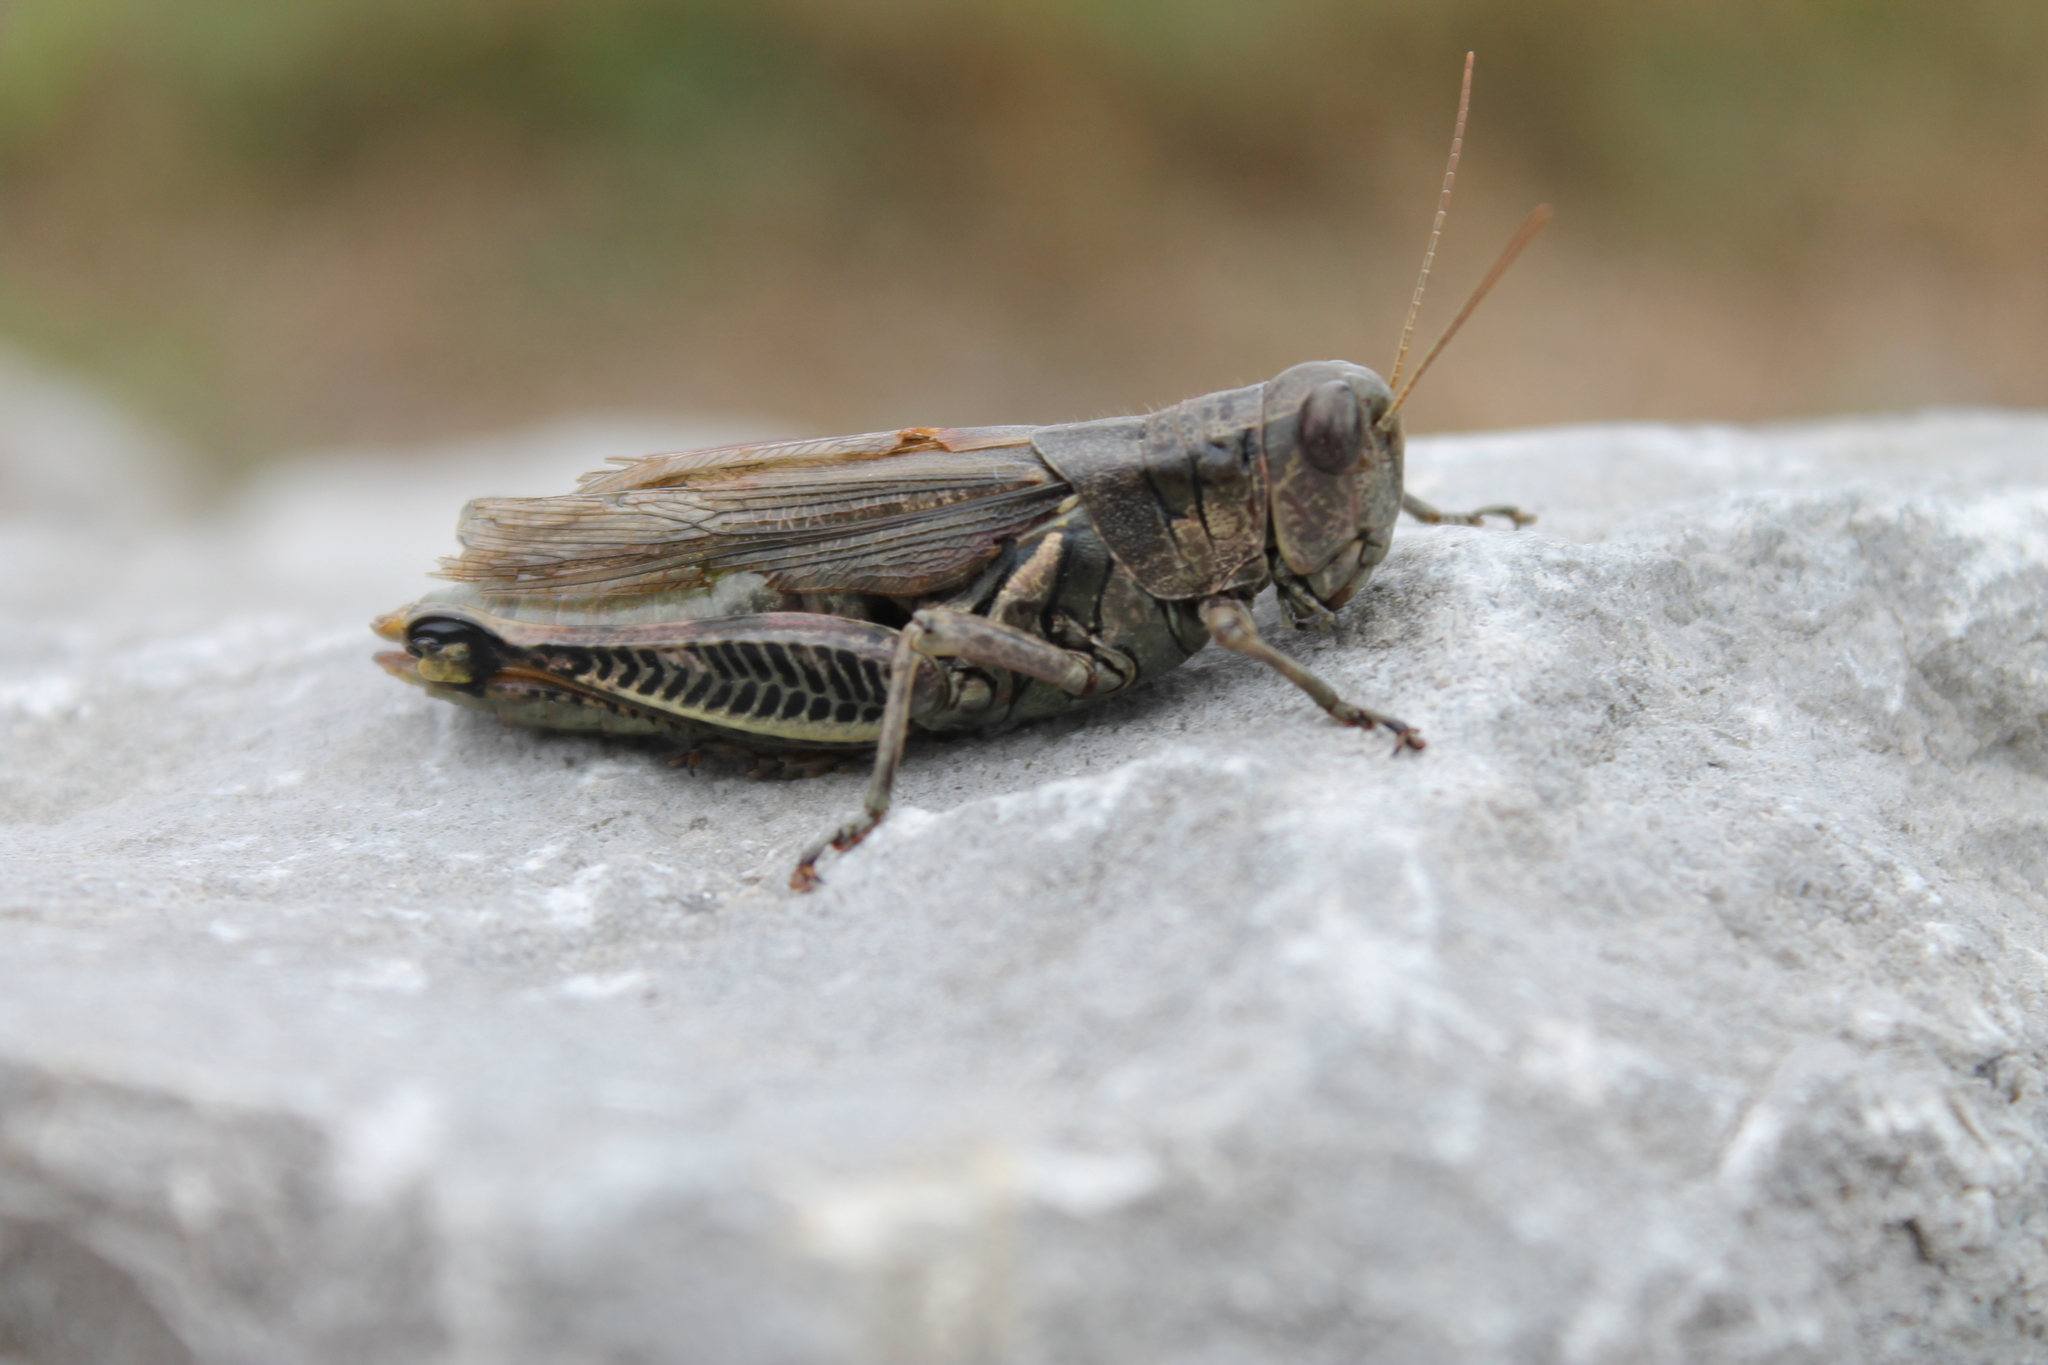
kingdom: Animalia
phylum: Arthropoda
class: Insecta
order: Orthoptera
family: Acrididae
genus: Melanoplus
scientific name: Melanoplus differentialis
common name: Differential grasshopper
